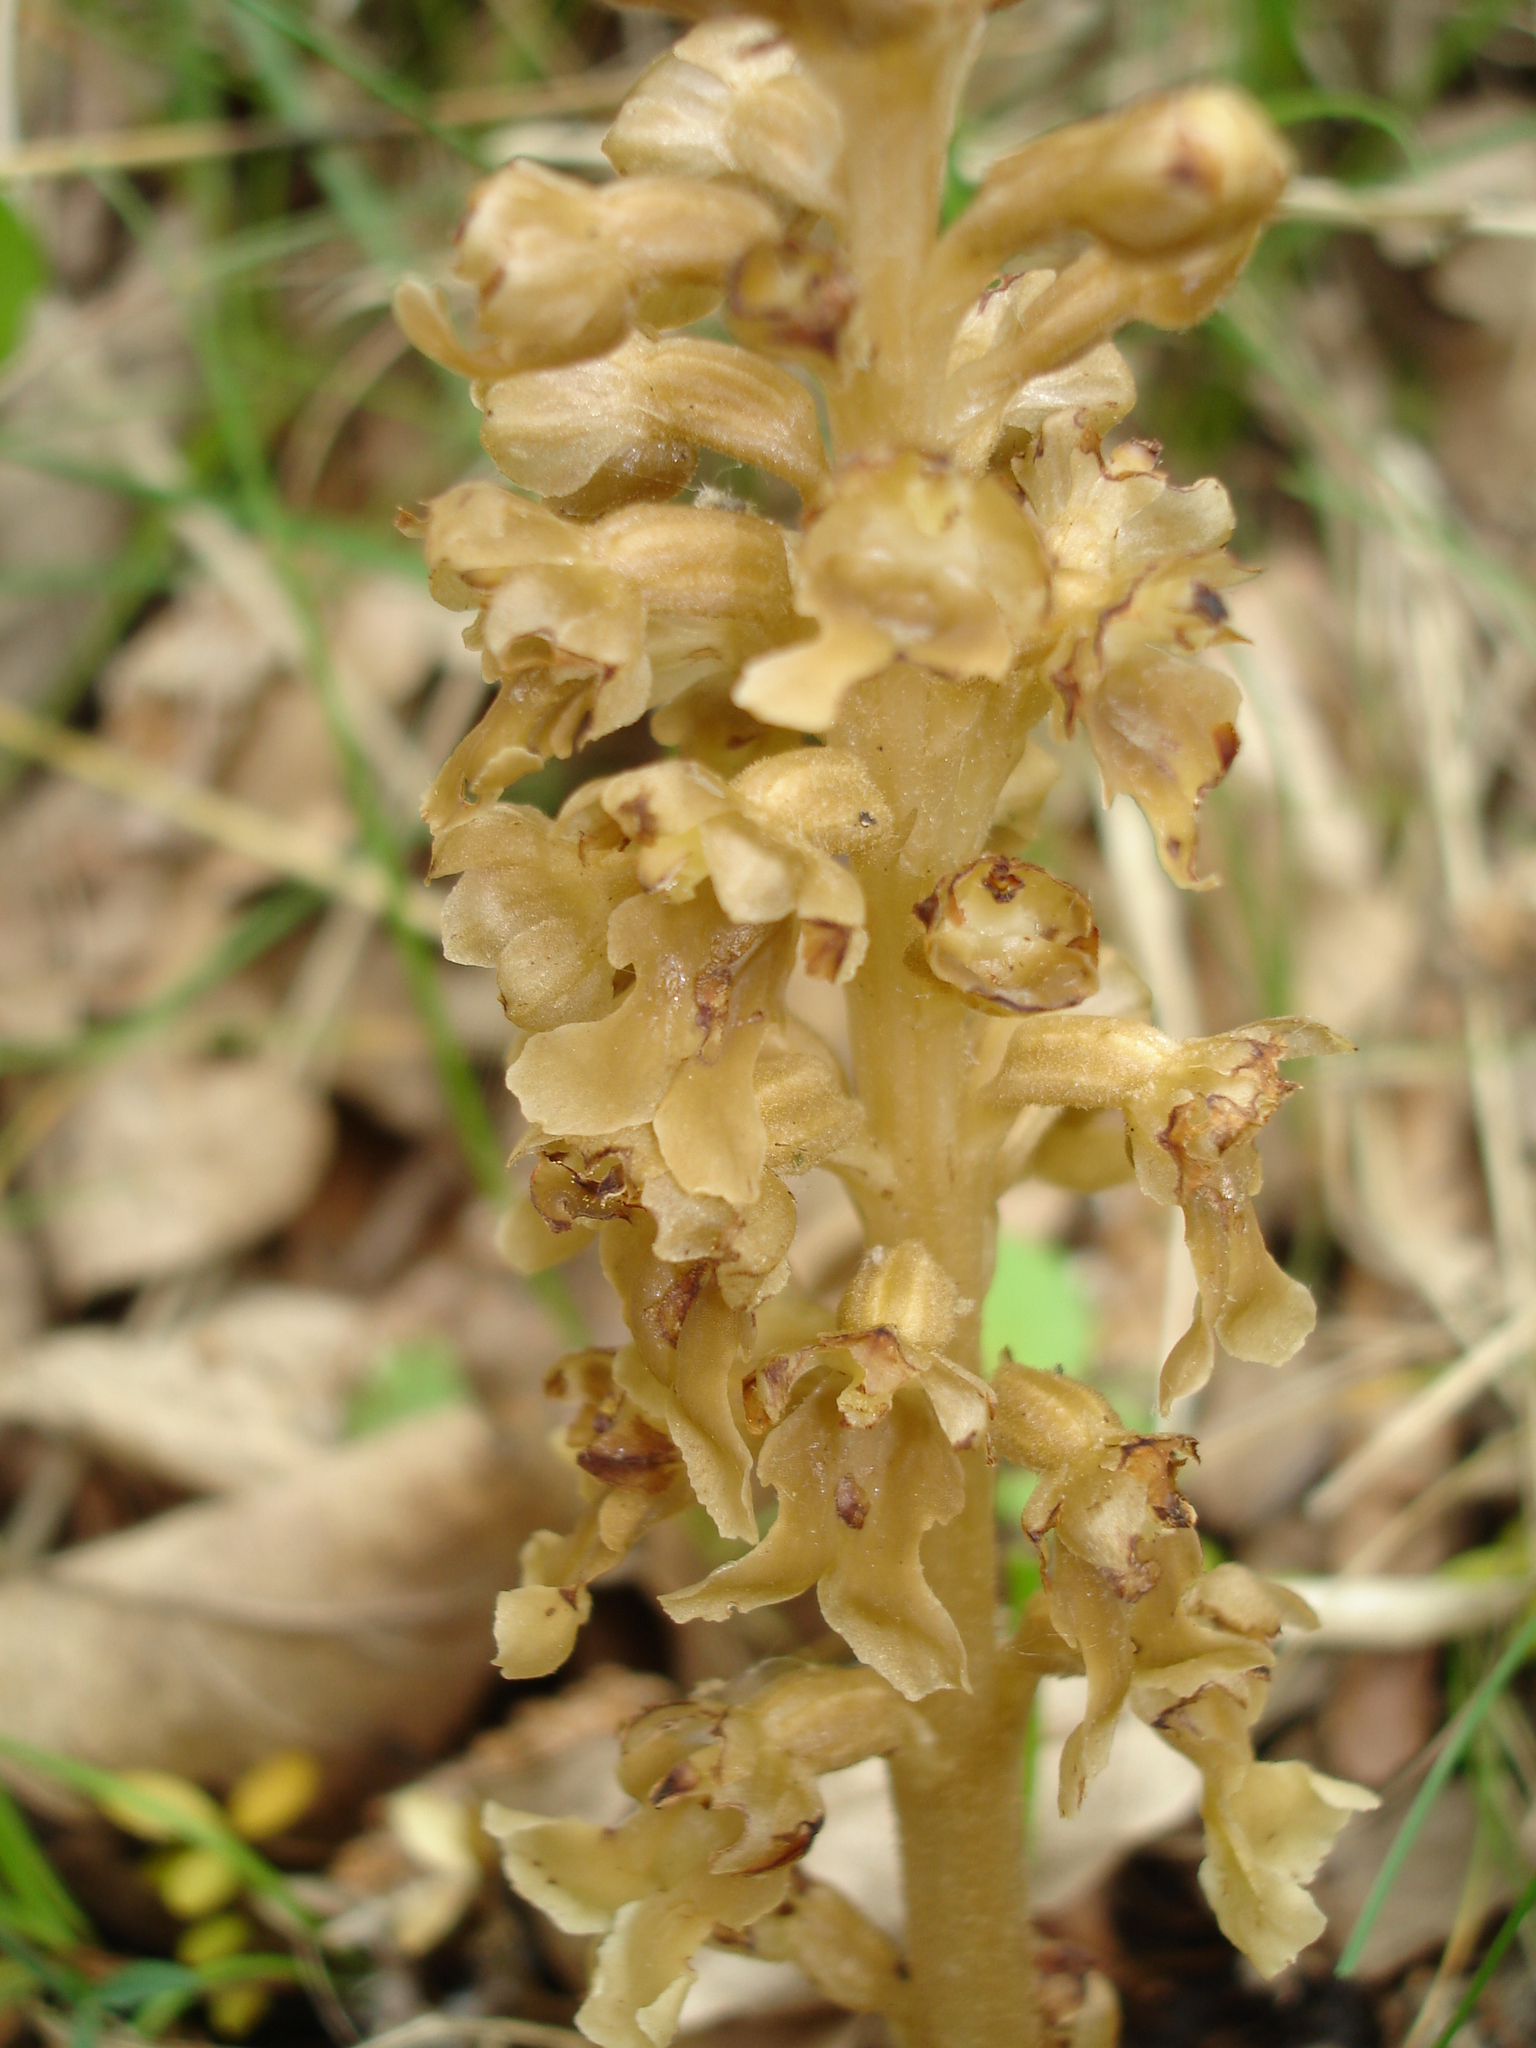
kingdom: Plantae
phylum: Tracheophyta
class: Liliopsida
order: Asparagales
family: Orchidaceae
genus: Neottia
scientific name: Neottia nidus-avis
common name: Bird's-nest orchid
